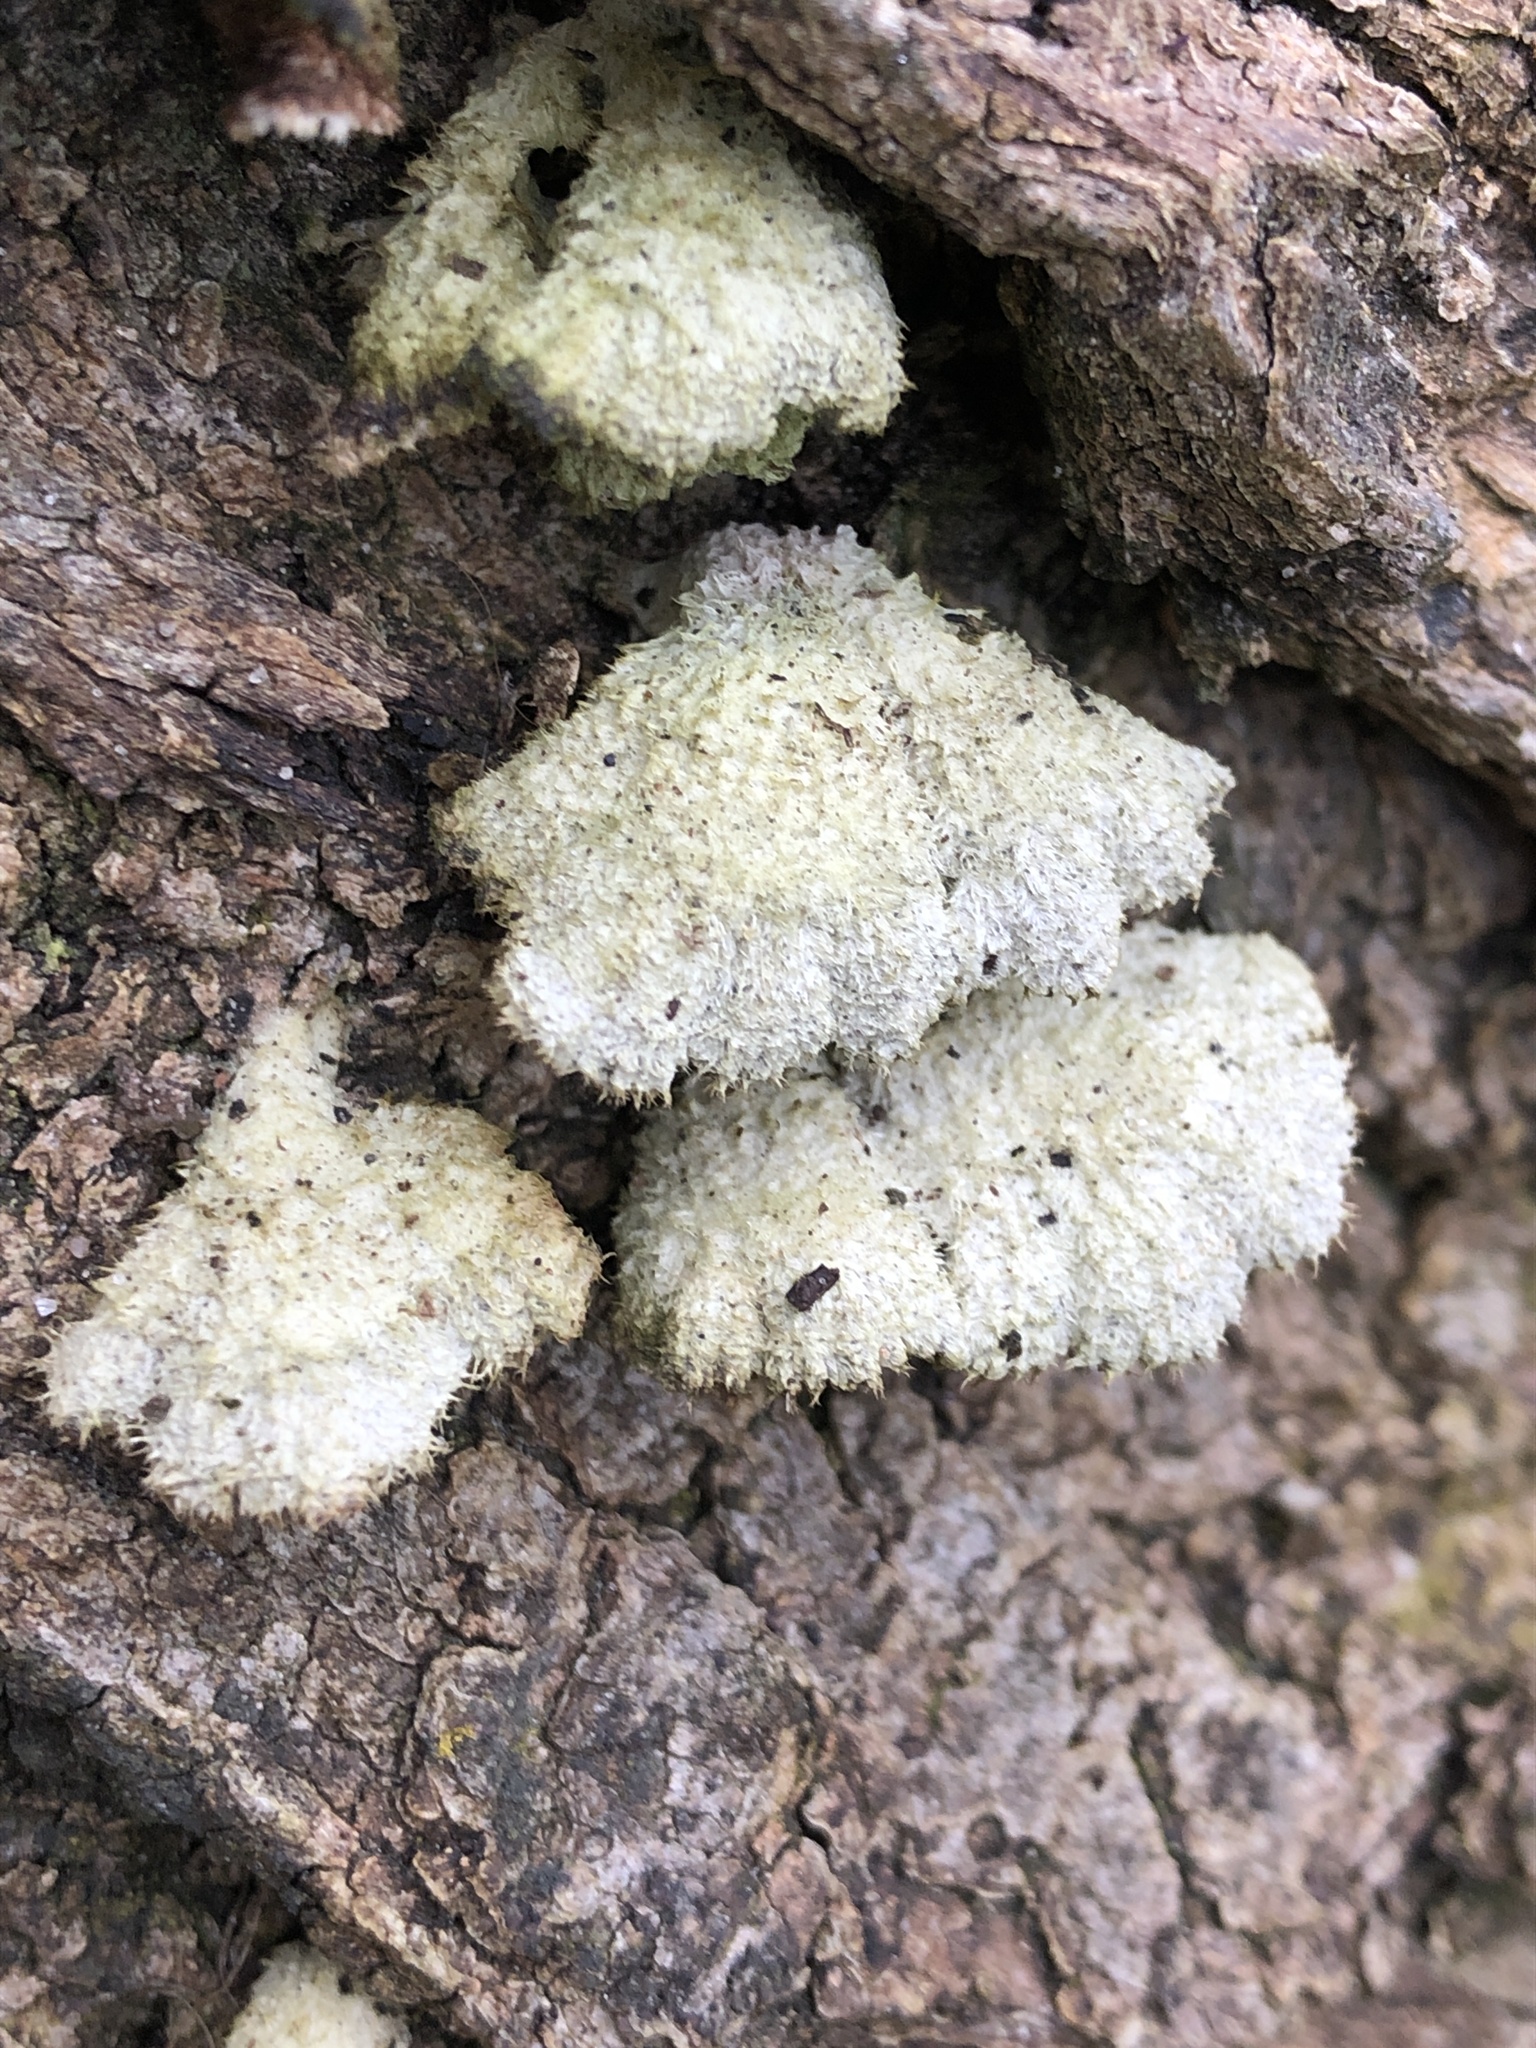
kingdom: Fungi
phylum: Basidiomycota
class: Agaricomycetes
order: Agaricales
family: Schizophyllaceae
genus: Schizophyllum
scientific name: Schizophyllum commune
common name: Common porecrust
